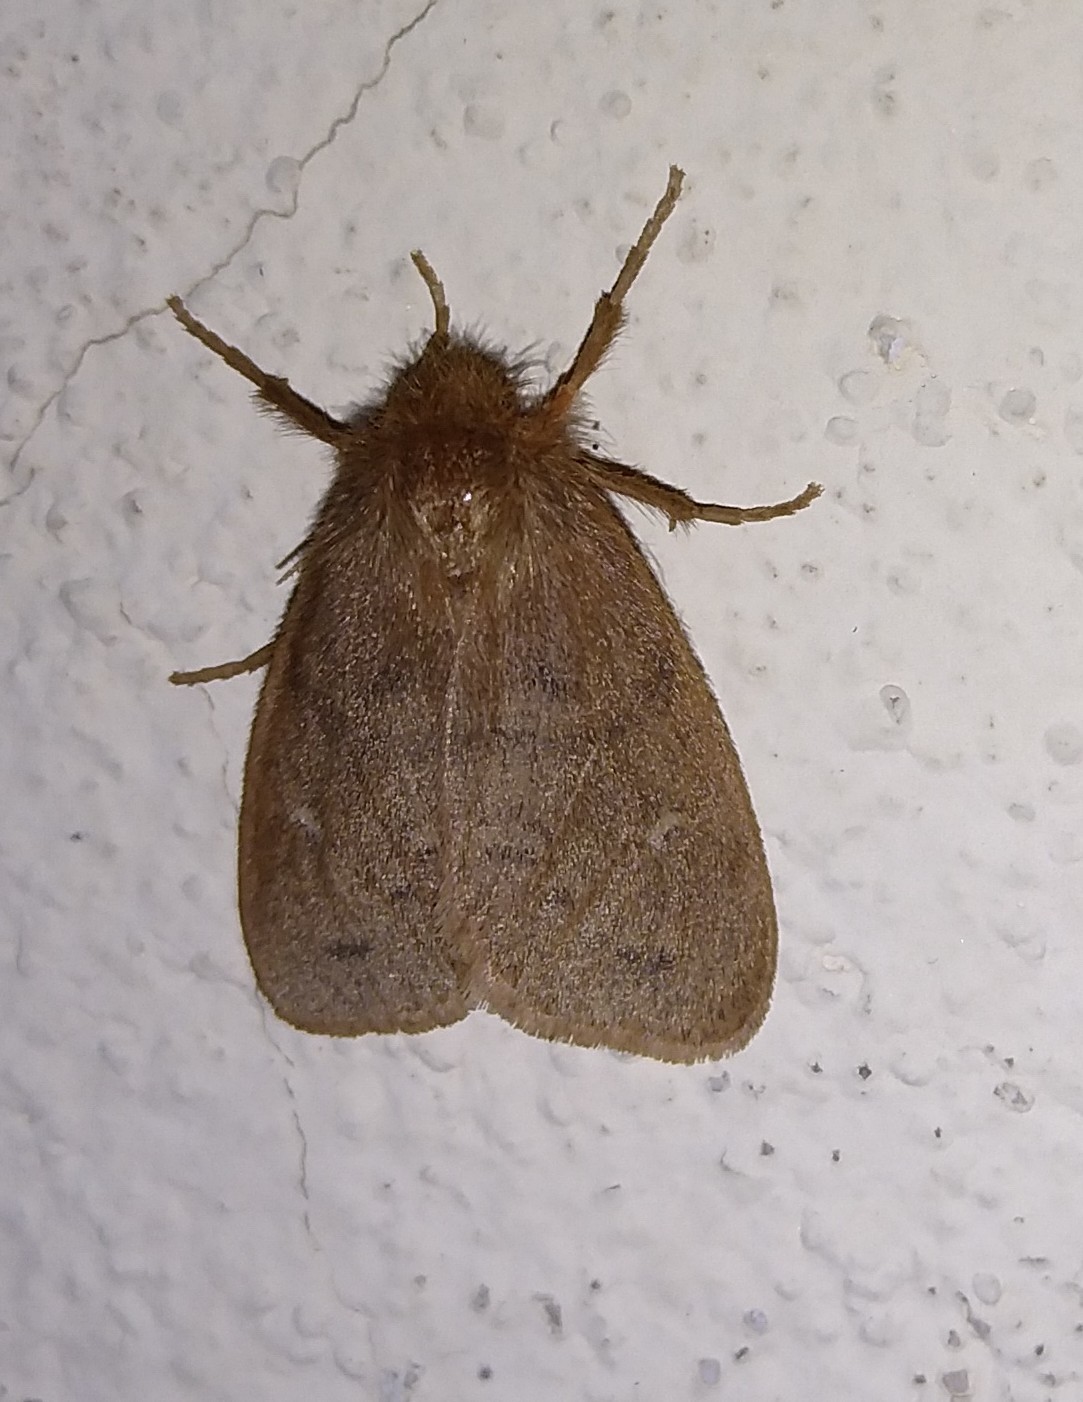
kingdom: Animalia
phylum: Arthropoda
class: Insecta
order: Lepidoptera
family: Erebidae
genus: Ocneria
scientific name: Ocneria rubea
